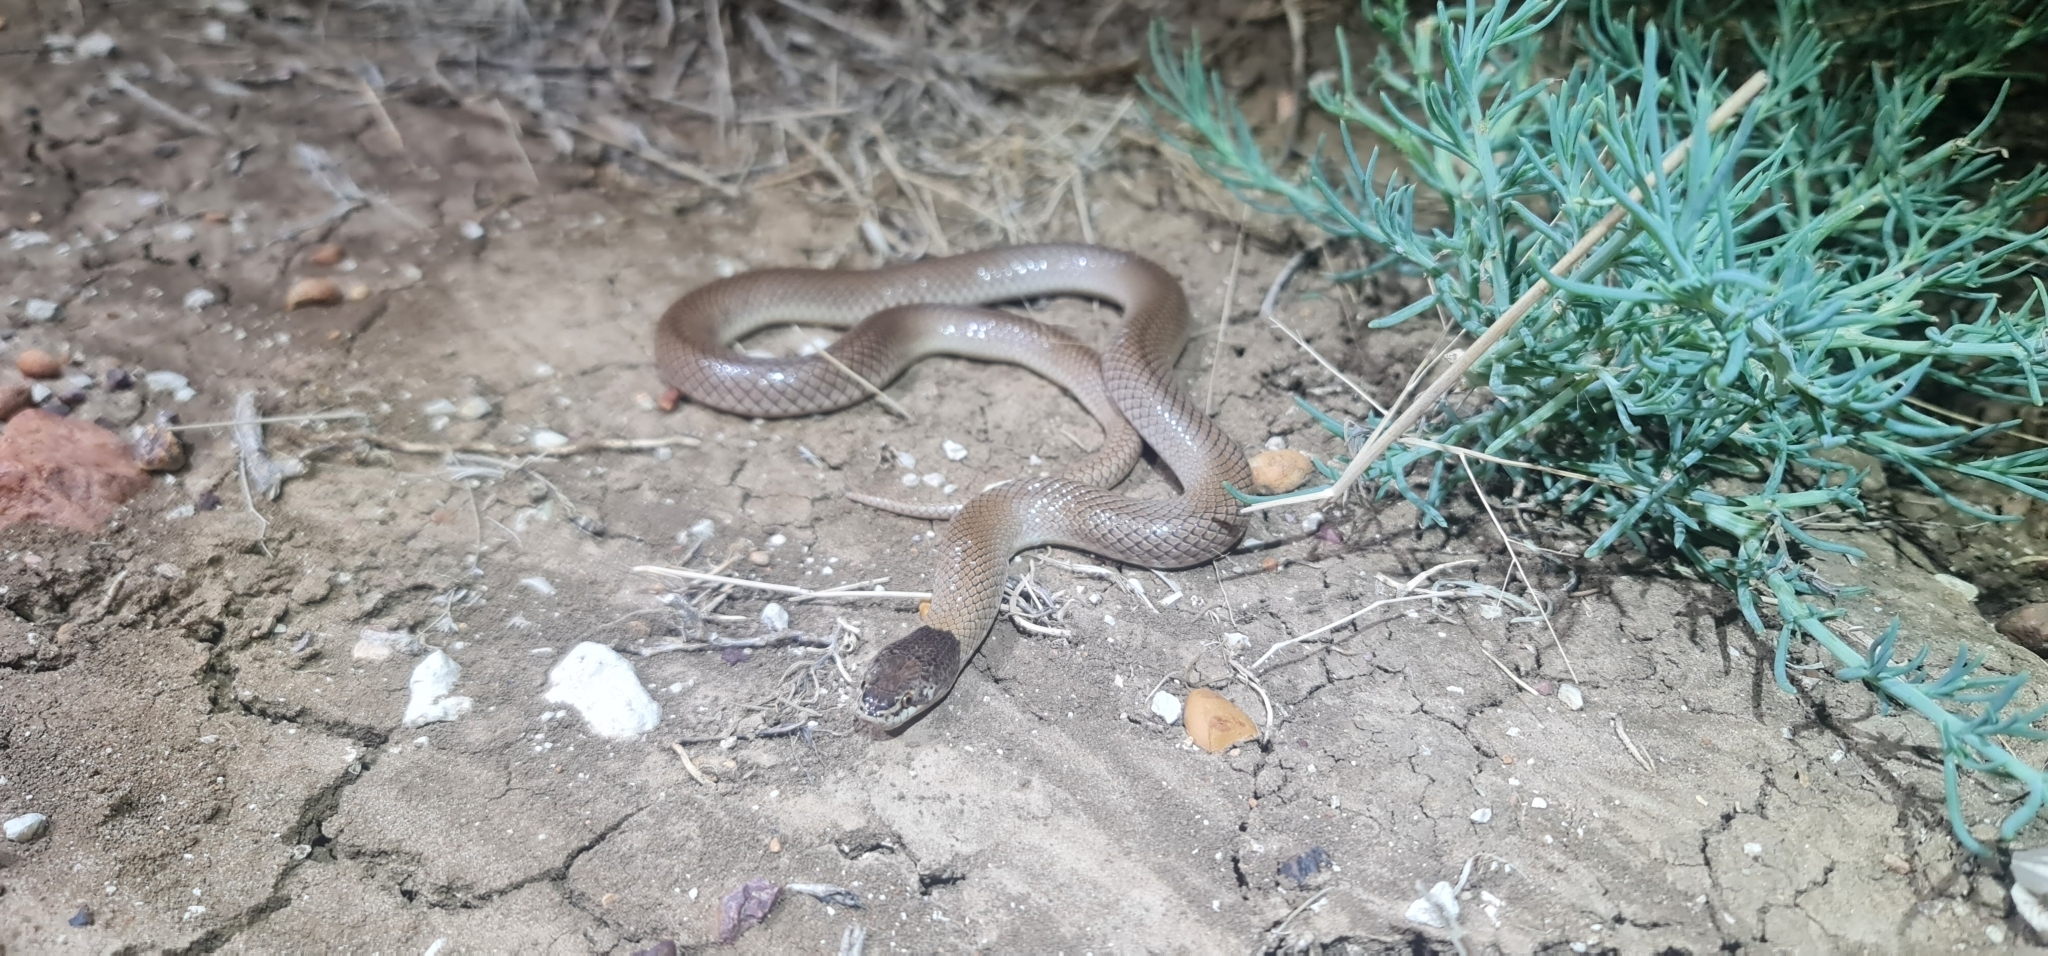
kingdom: Animalia
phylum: Chordata
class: Squamata
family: Elapidae
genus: Suta
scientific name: Suta suta
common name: Curl snake
